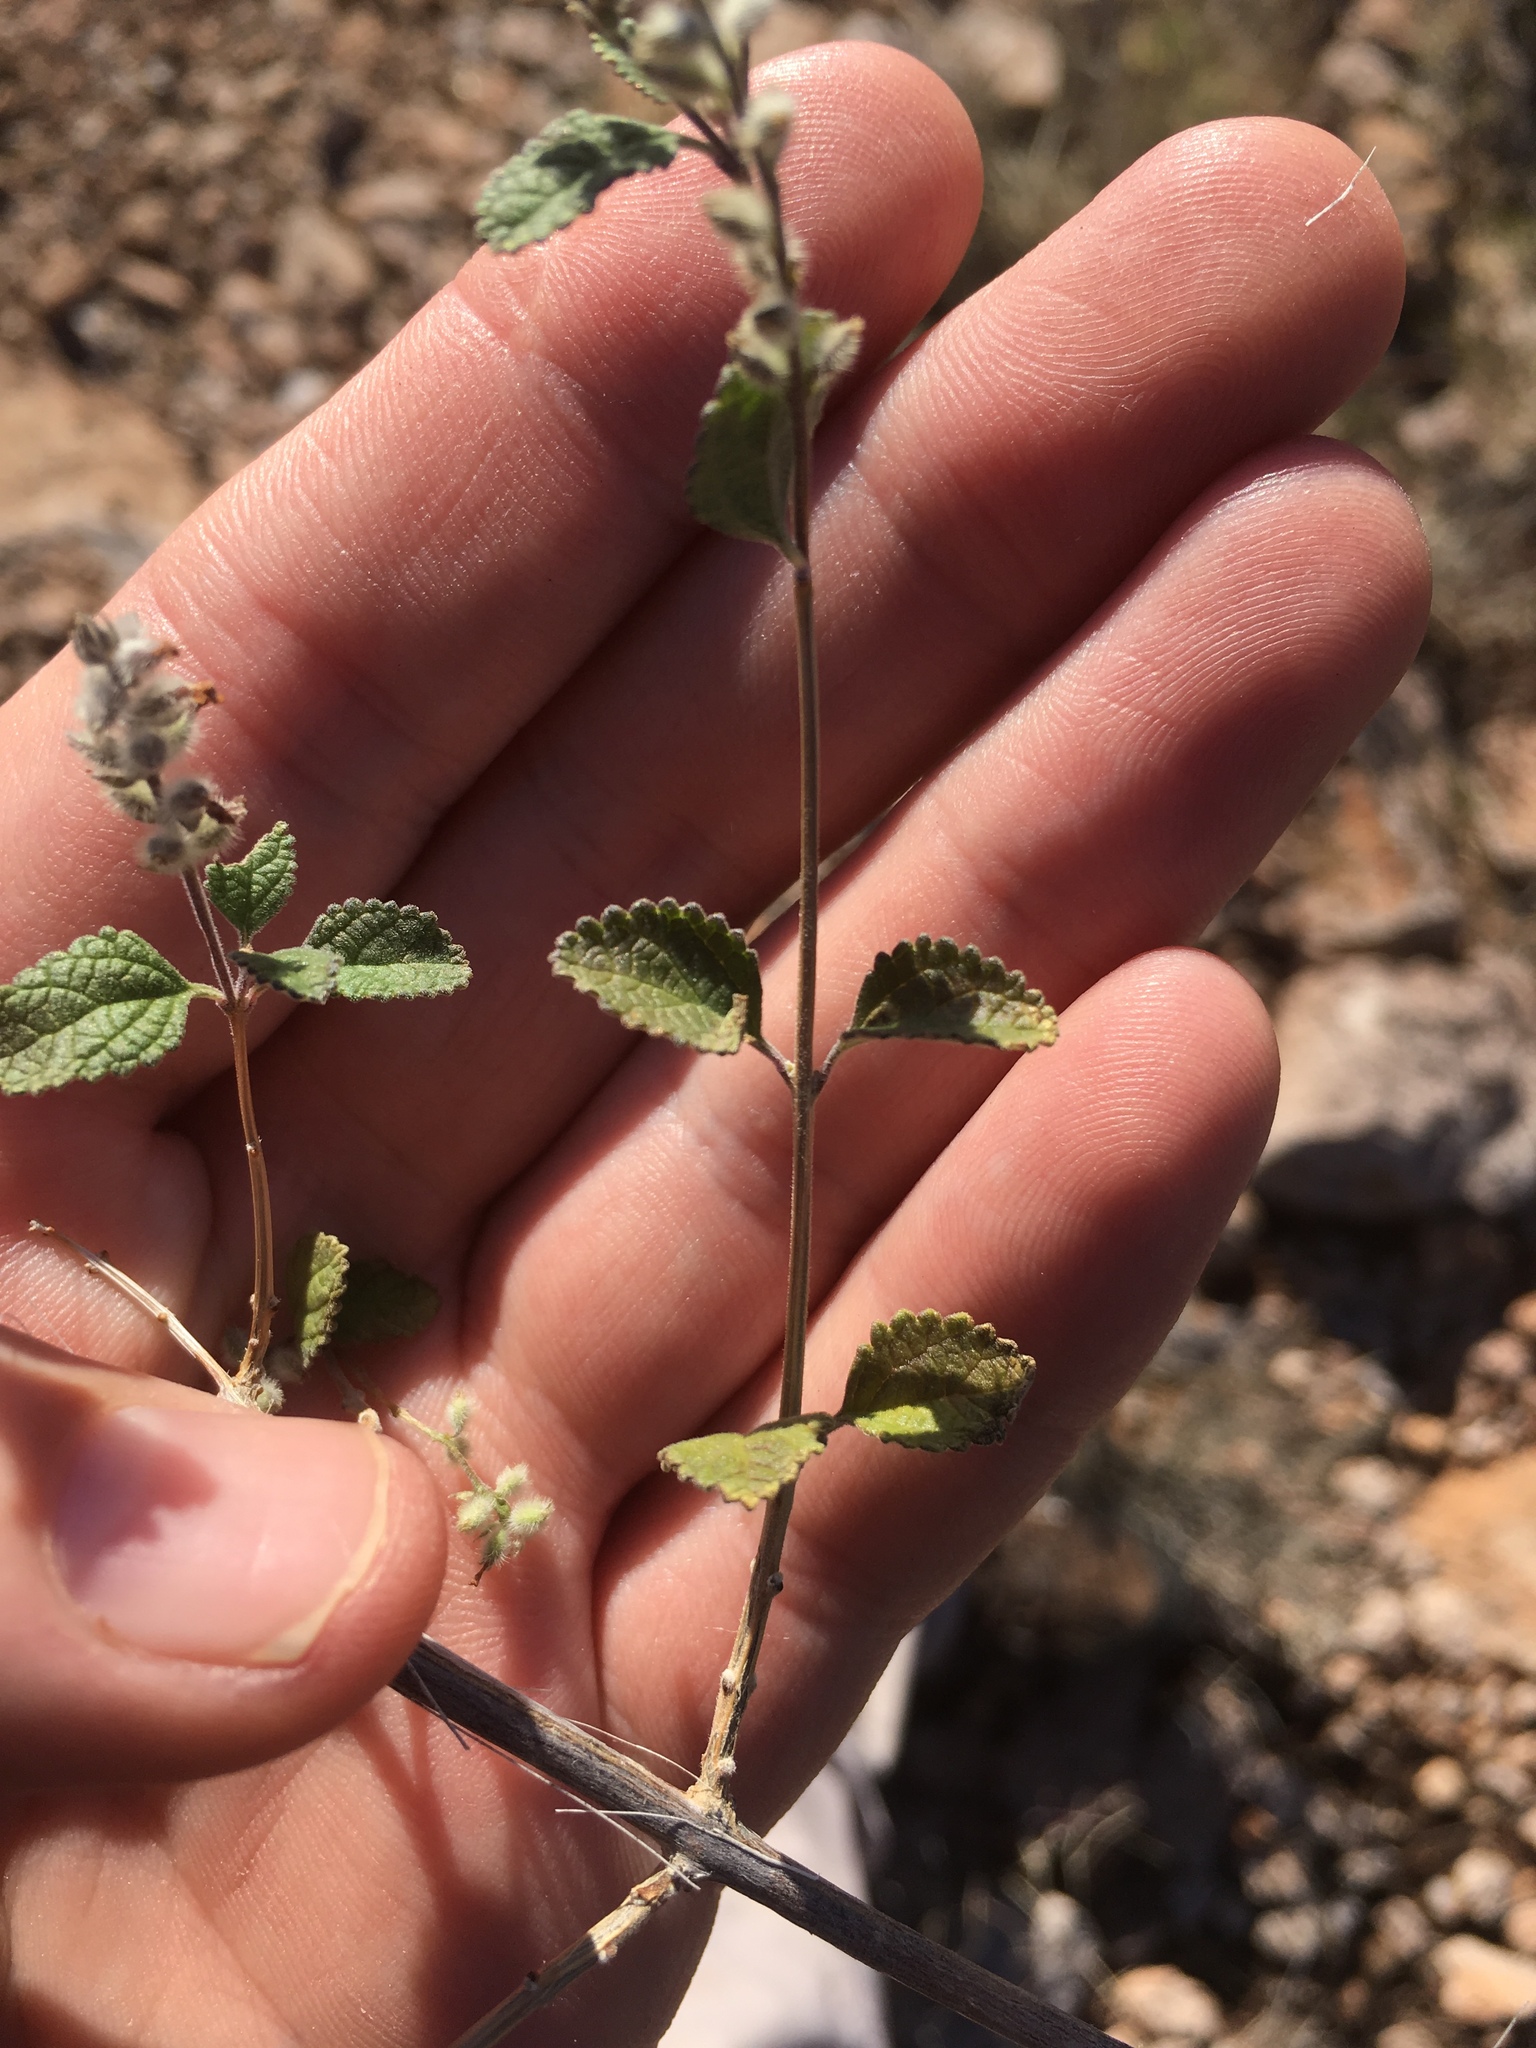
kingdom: Plantae
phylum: Tracheophyta
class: Magnoliopsida
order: Lamiales
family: Verbenaceae
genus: Aloysia
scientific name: Aloysia wrightii
